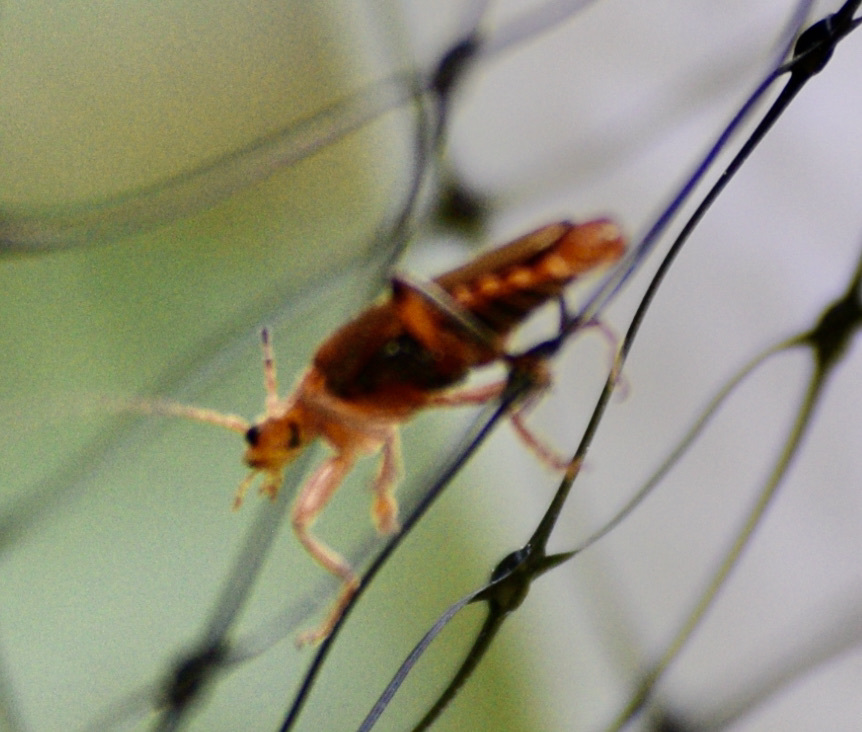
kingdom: Animalia
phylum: Arthropoda
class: Insecta
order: Coleoptera
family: Cantharidae
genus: Cantharis
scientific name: Cantharis livida
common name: Livid soldier beetle
